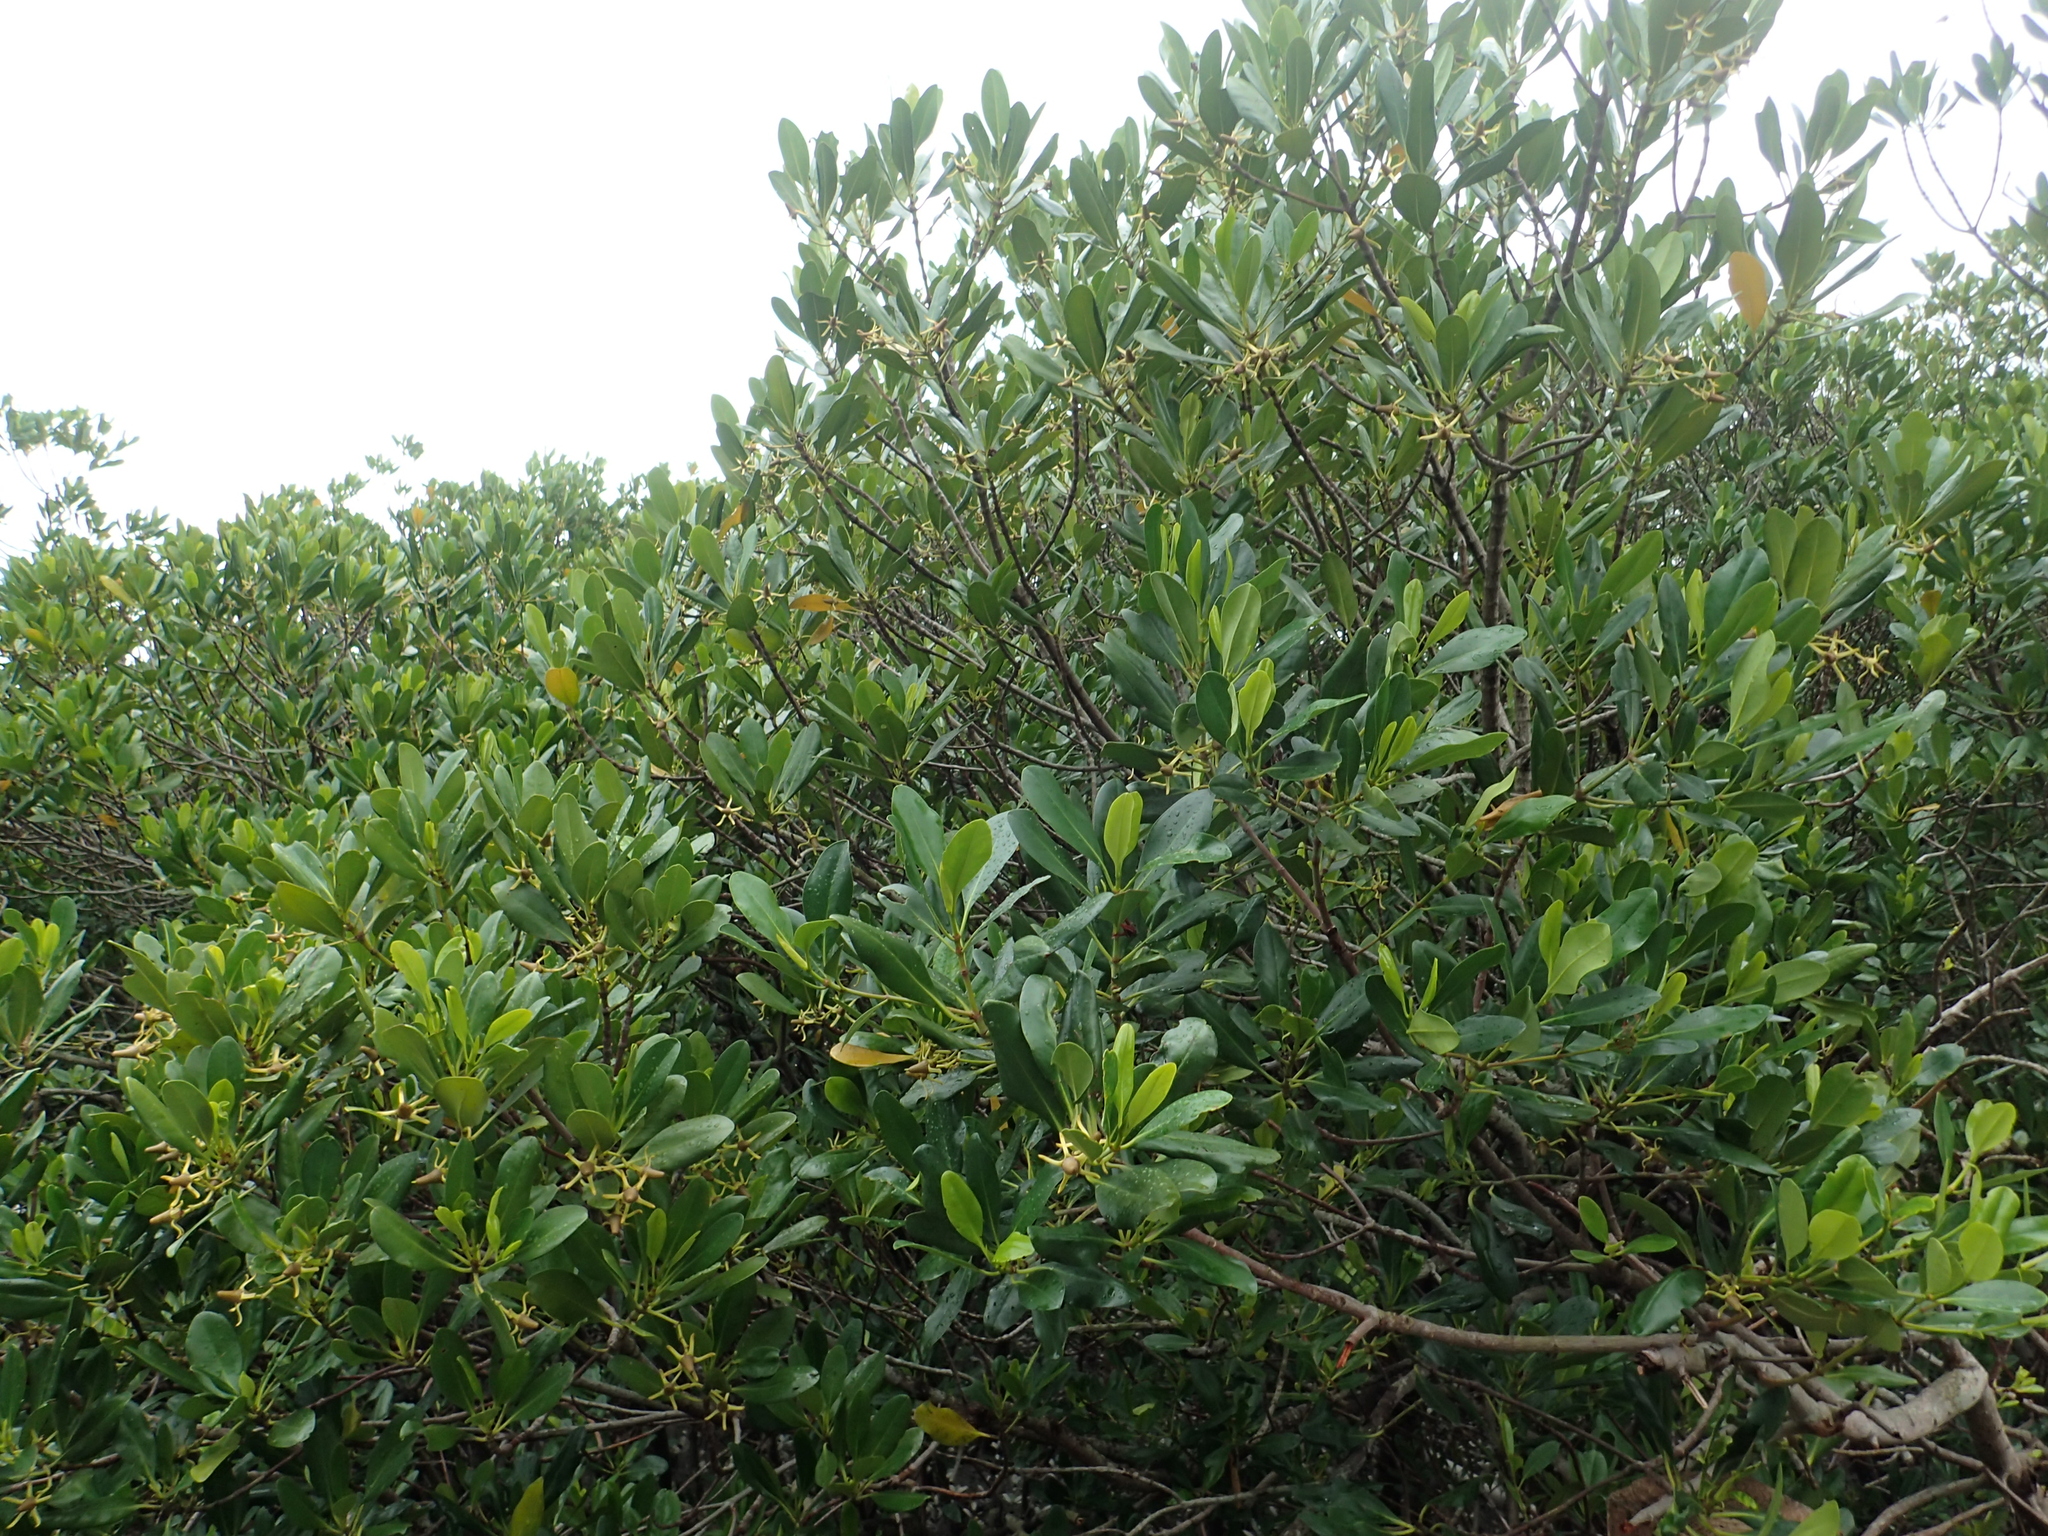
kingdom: Plantae
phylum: Tracheophyta
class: Magnoliopsida
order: Malpighiales
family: Rhizophoraceae
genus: Kandelia
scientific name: Kandelia obovata
